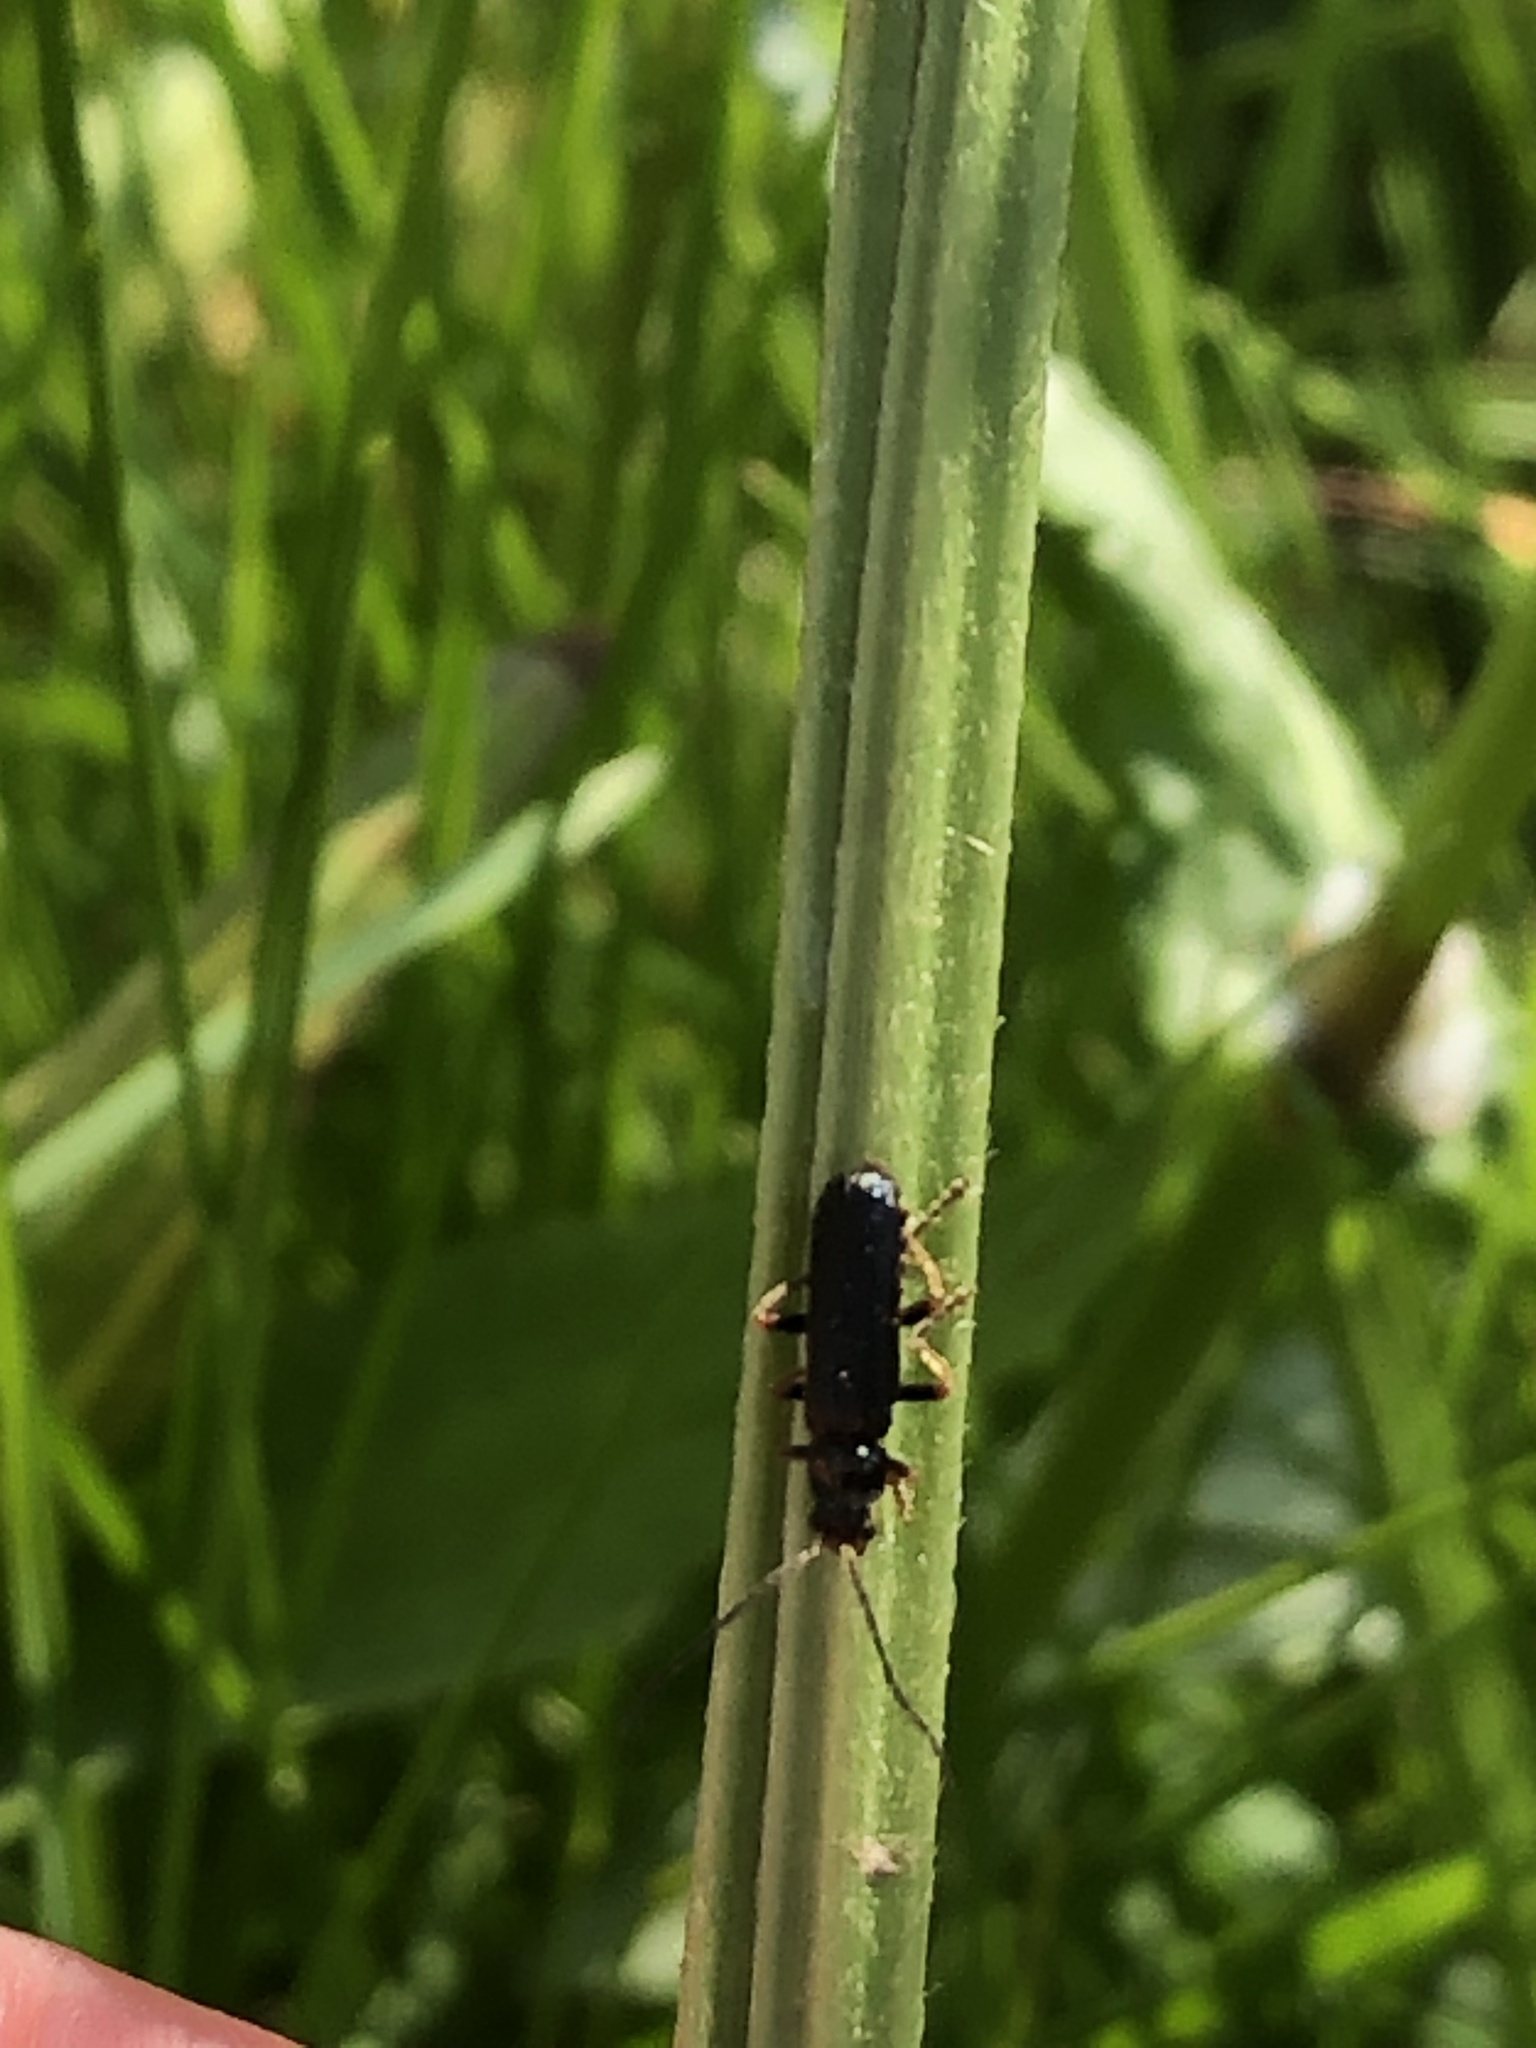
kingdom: Animalia
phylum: Arthropoda
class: Insecta
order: Coleoptera
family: Cantharidae
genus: Cantharis
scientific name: Cantharis flavilabris
